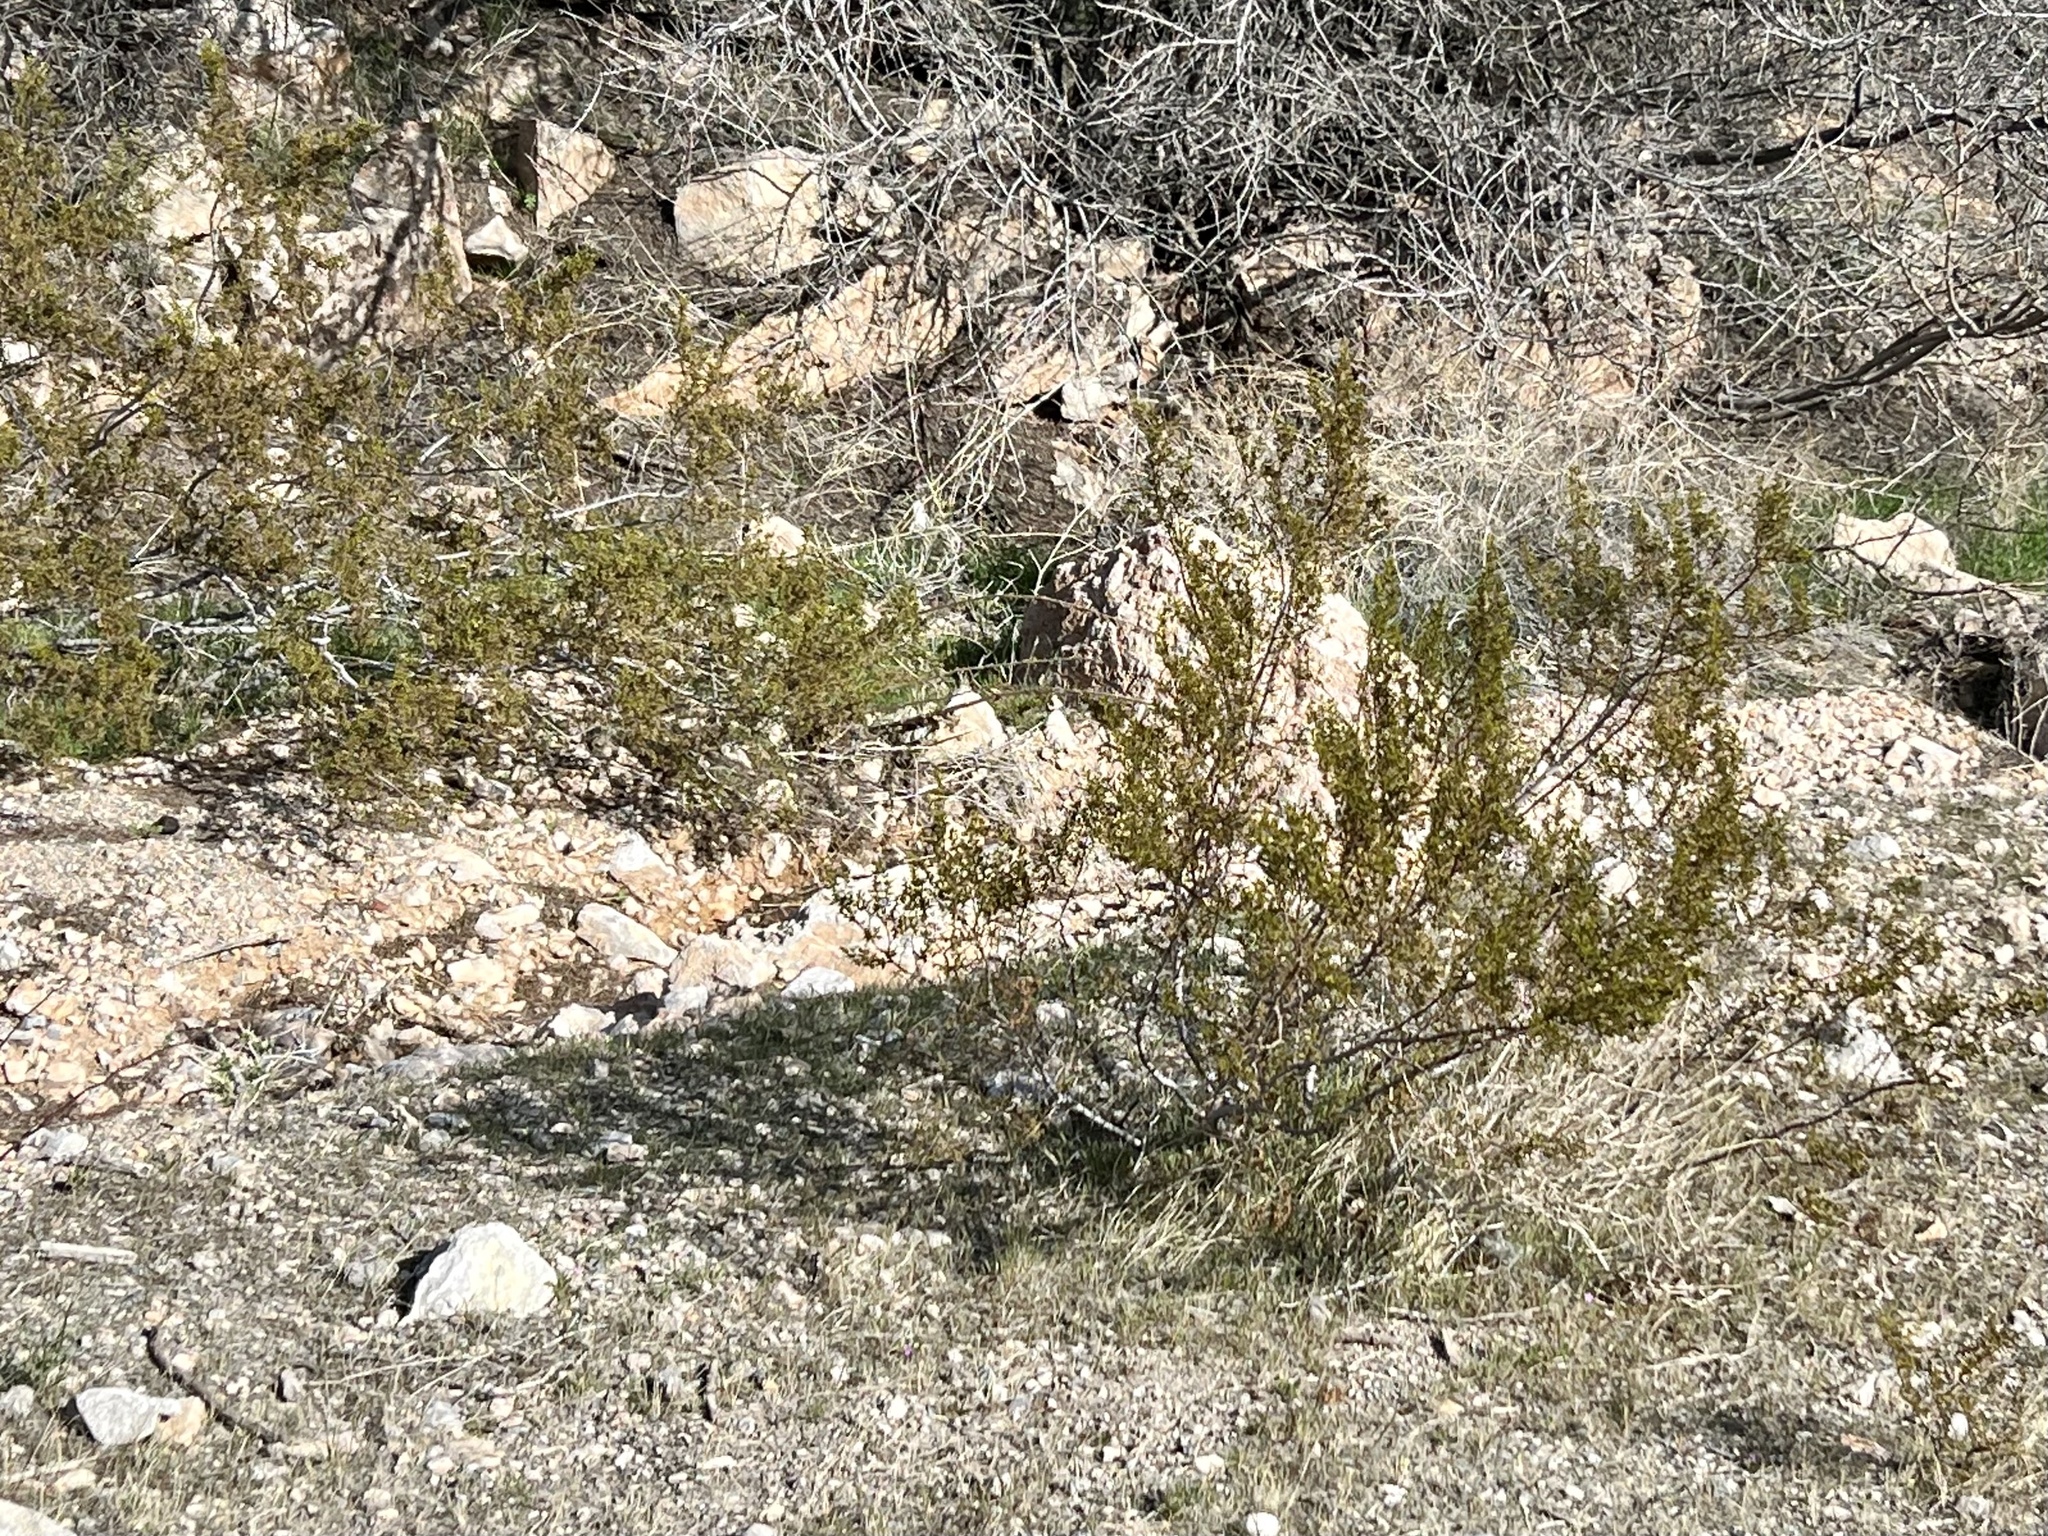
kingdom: Plantae
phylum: Tracheophyta
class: Magnoliopsida
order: Zygophyllales
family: Zygophyllaceae
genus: Larrea
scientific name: Larrea tridentata
